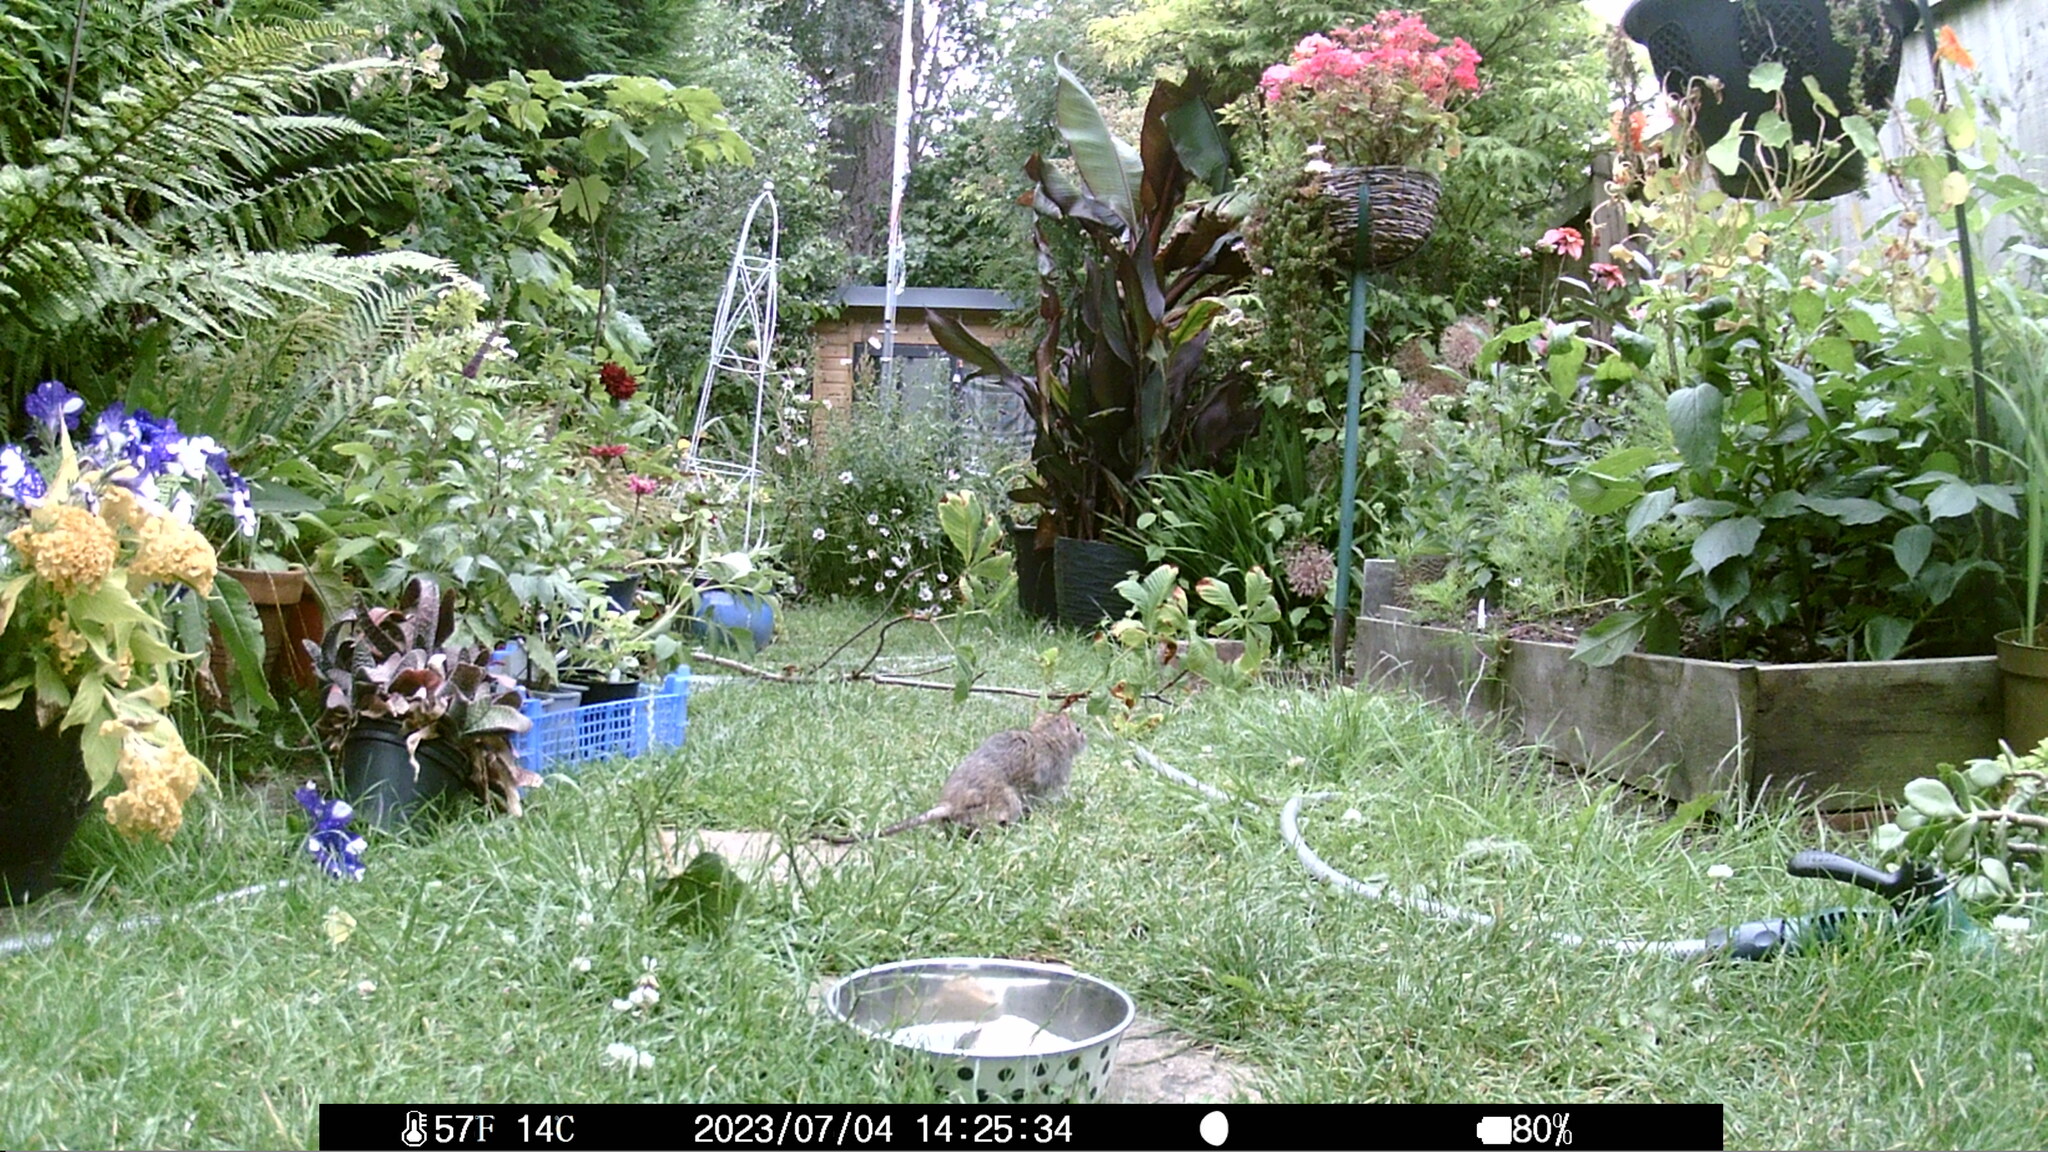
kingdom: Animalia
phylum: Chordata
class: Mammalia
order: Rodentia
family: Muridae
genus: Rattus
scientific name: Rattus norvegicus
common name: Brown rat
